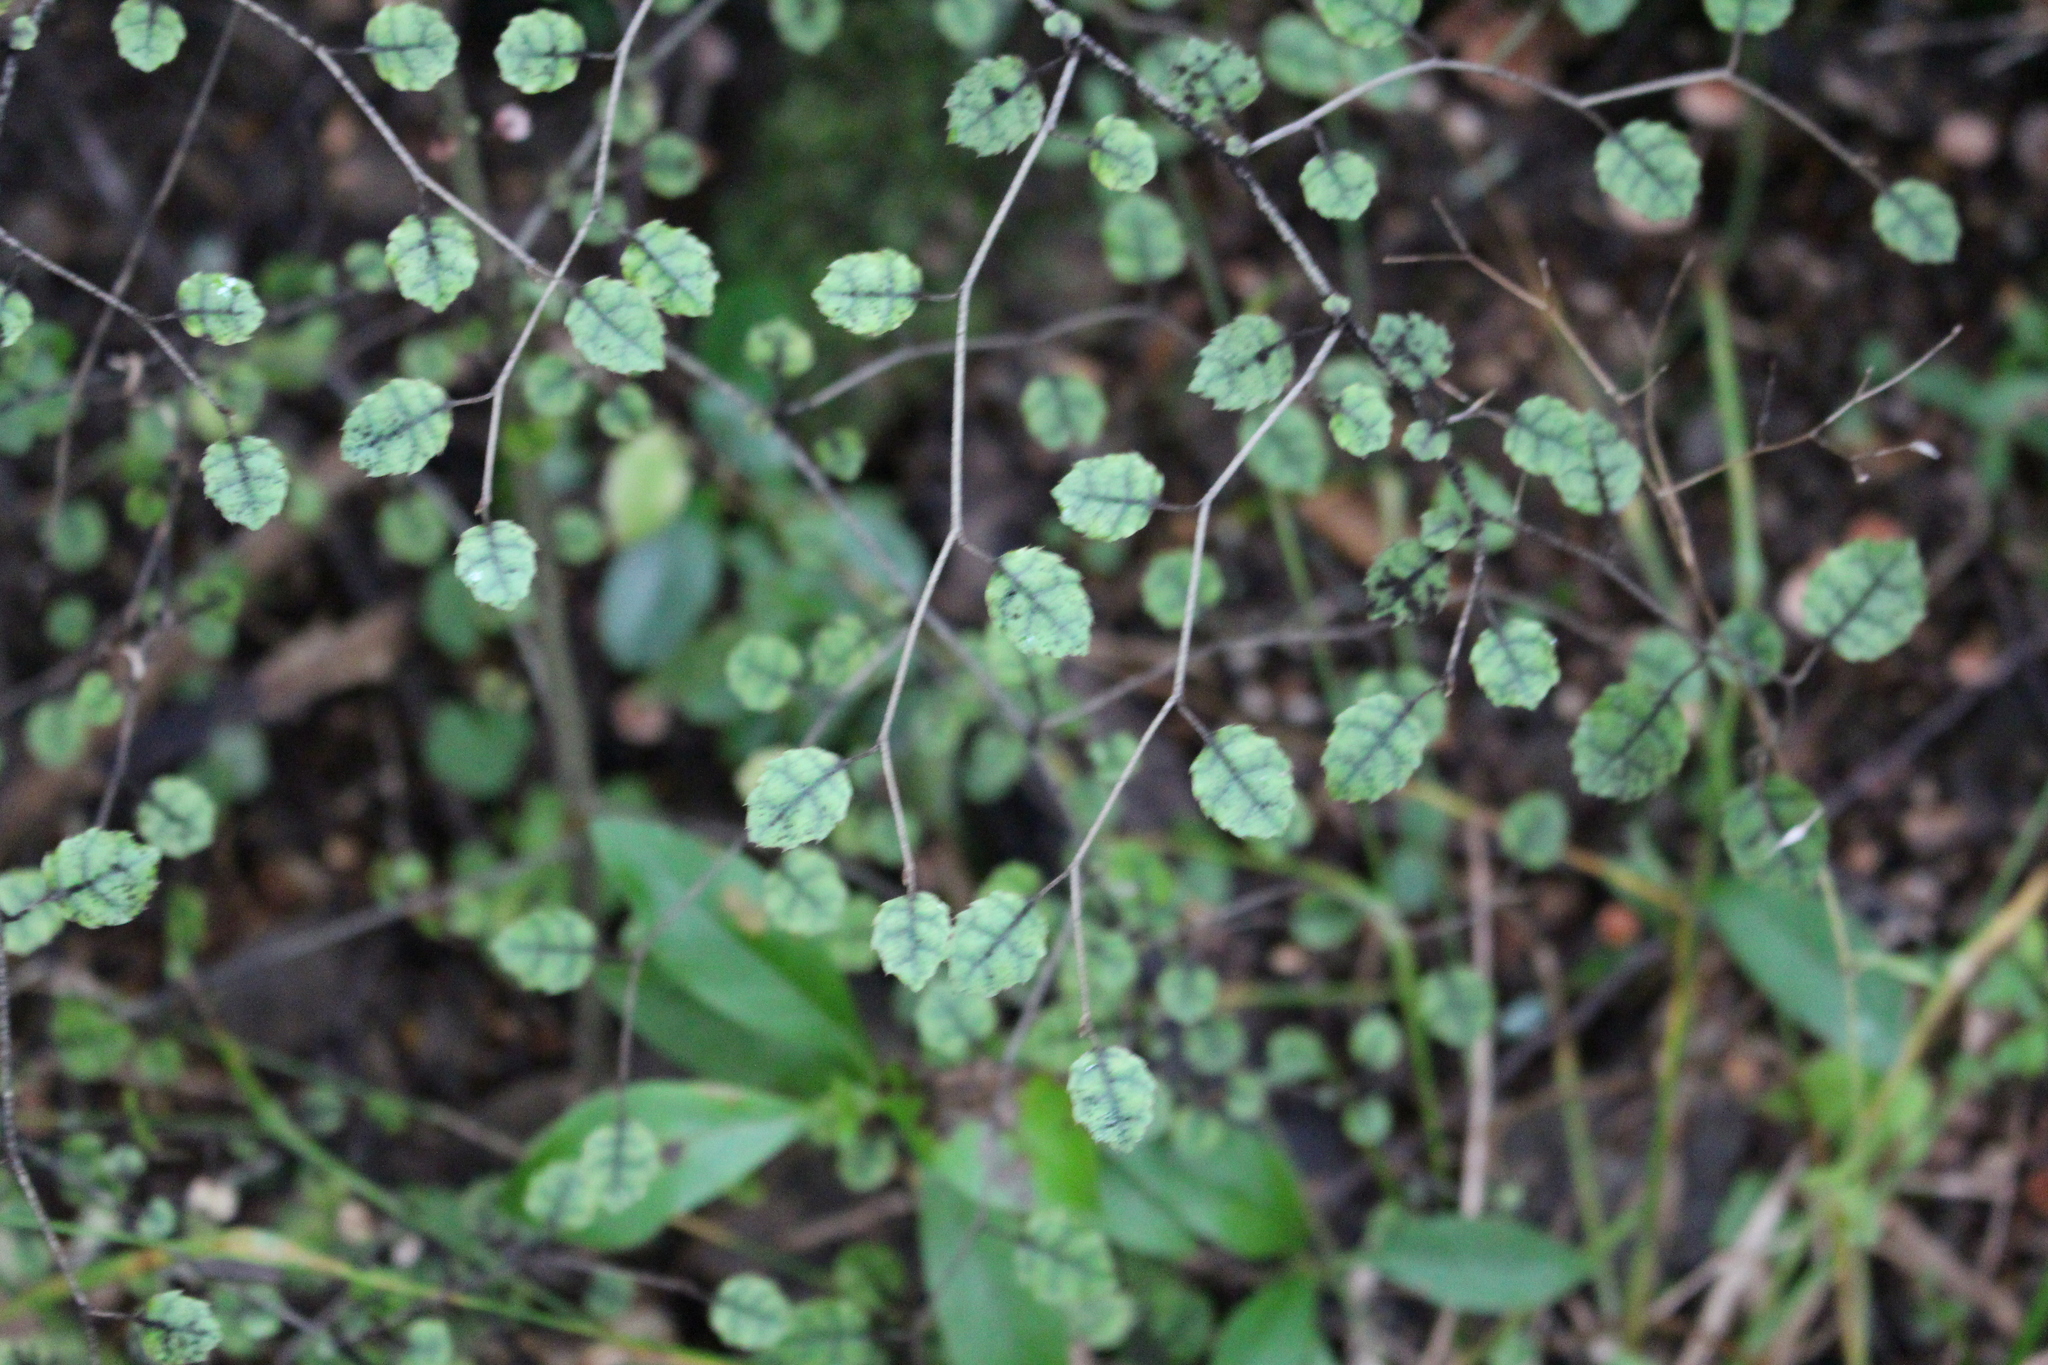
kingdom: Plantae
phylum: Tracheophyta
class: Magnoliopsida
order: Asterales
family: Rousseaceae
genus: Carpodetus
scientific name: Carpodetus serratus
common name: White mapau
